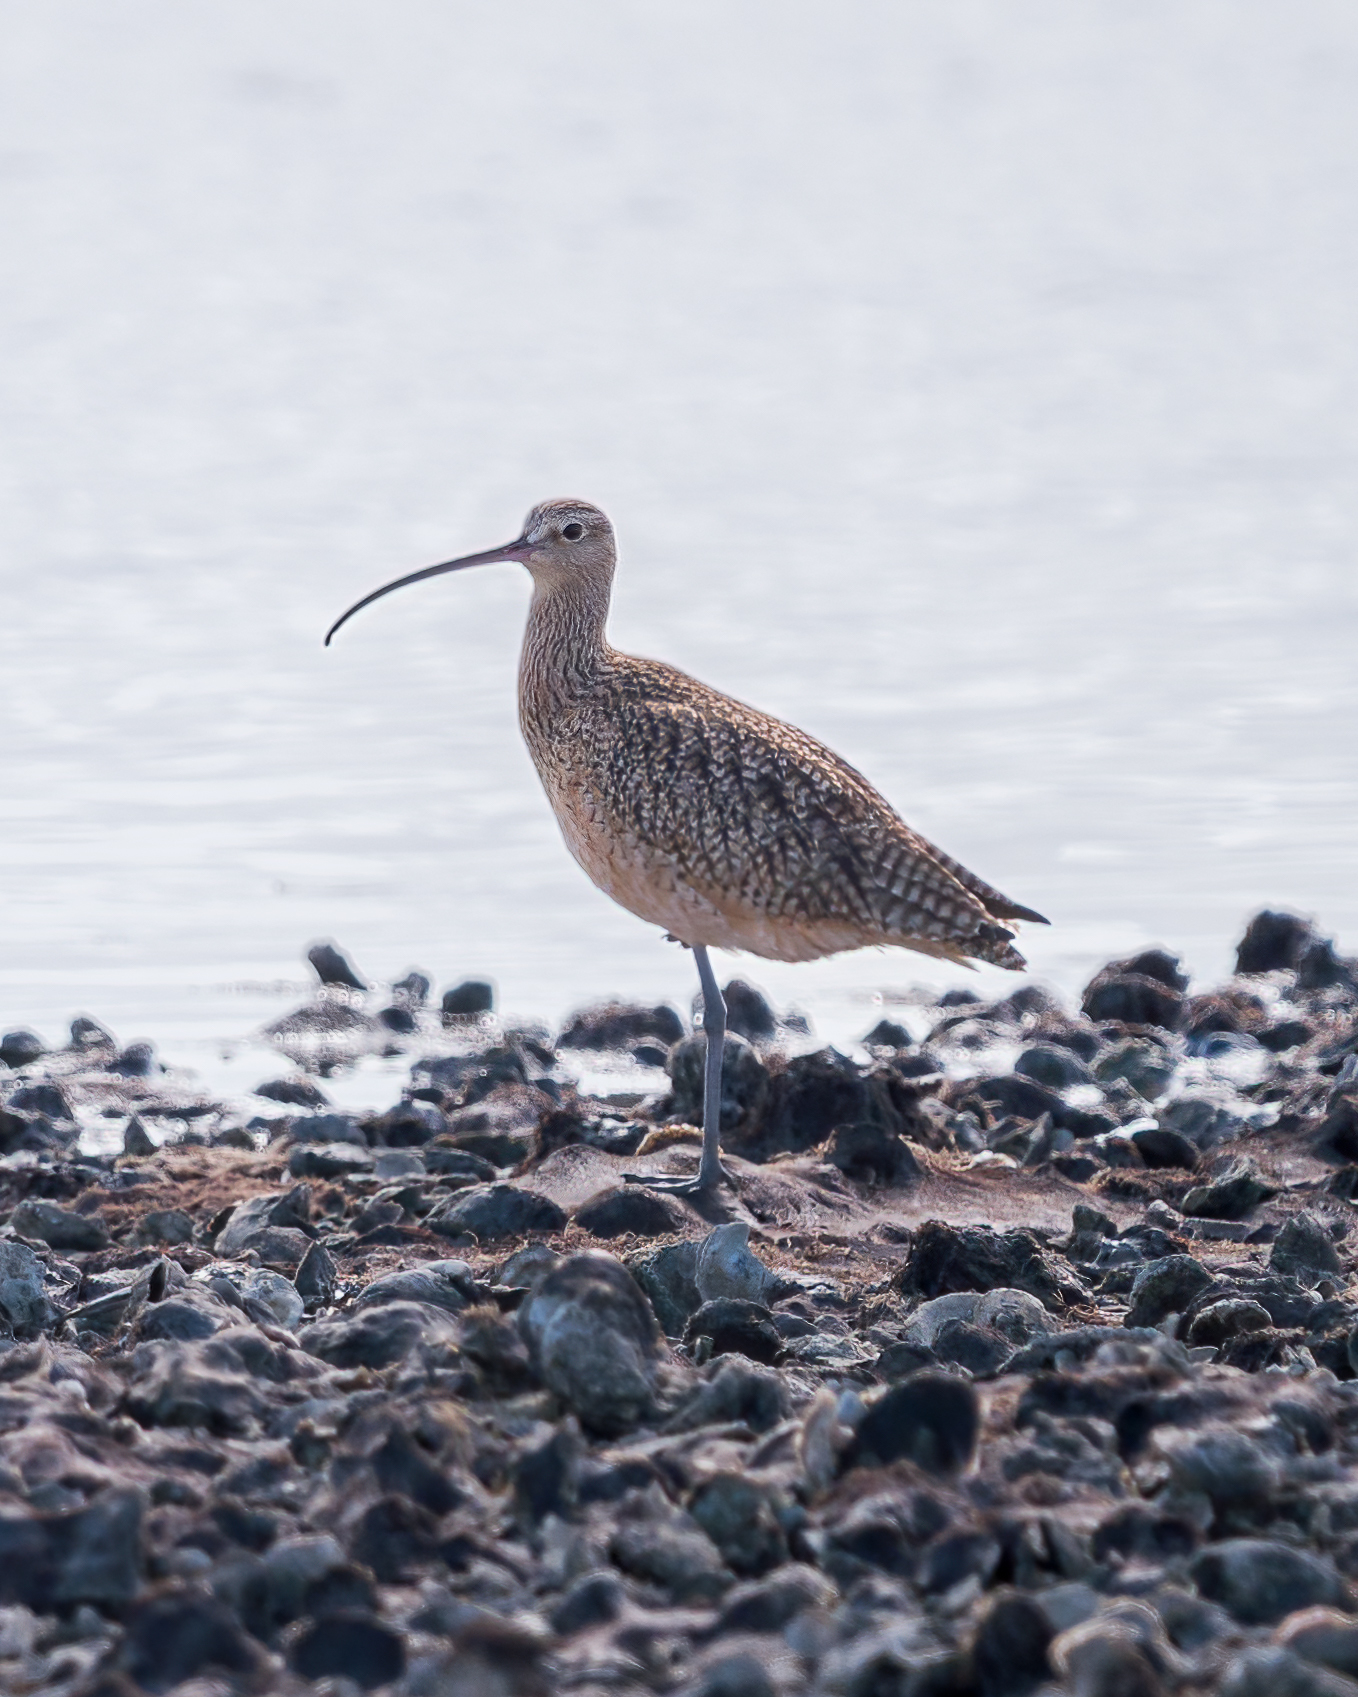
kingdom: Animalia
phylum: Chordata
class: Aves
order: Charadriiformes
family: Scolopacidae
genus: Numenius
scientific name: Numenius americanus
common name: Long-billed curlew
